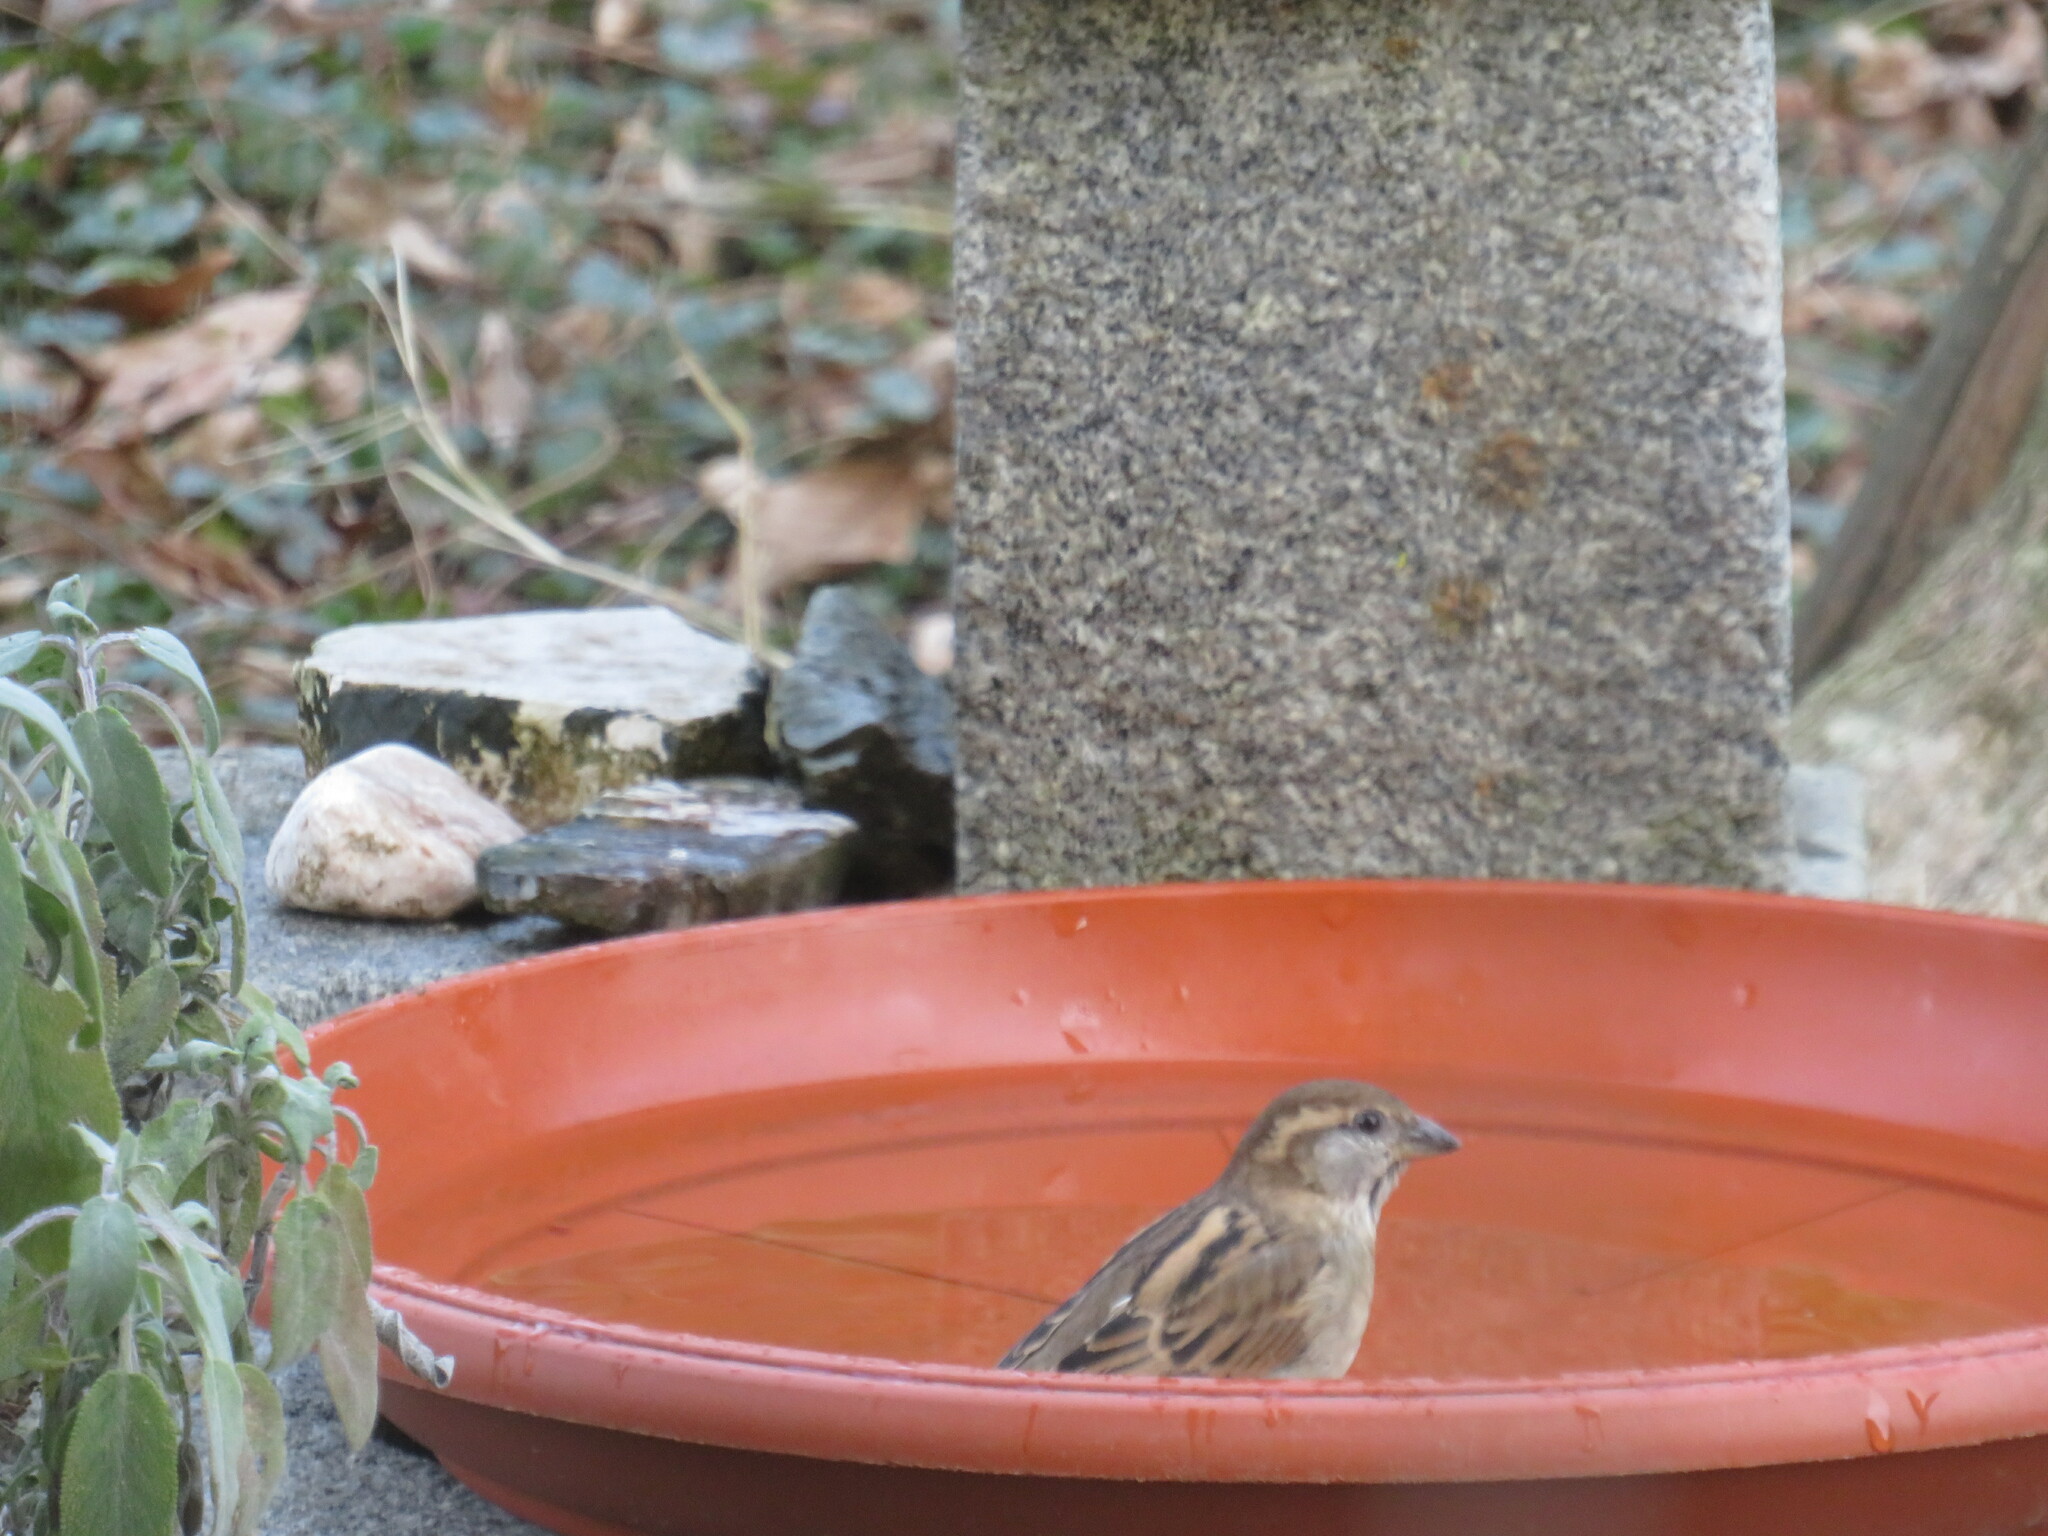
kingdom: Animalia
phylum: Chordata
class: Aves
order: Passeriformes
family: Passeridae
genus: Passer
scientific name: Passer italiae
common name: Italian sparrow
